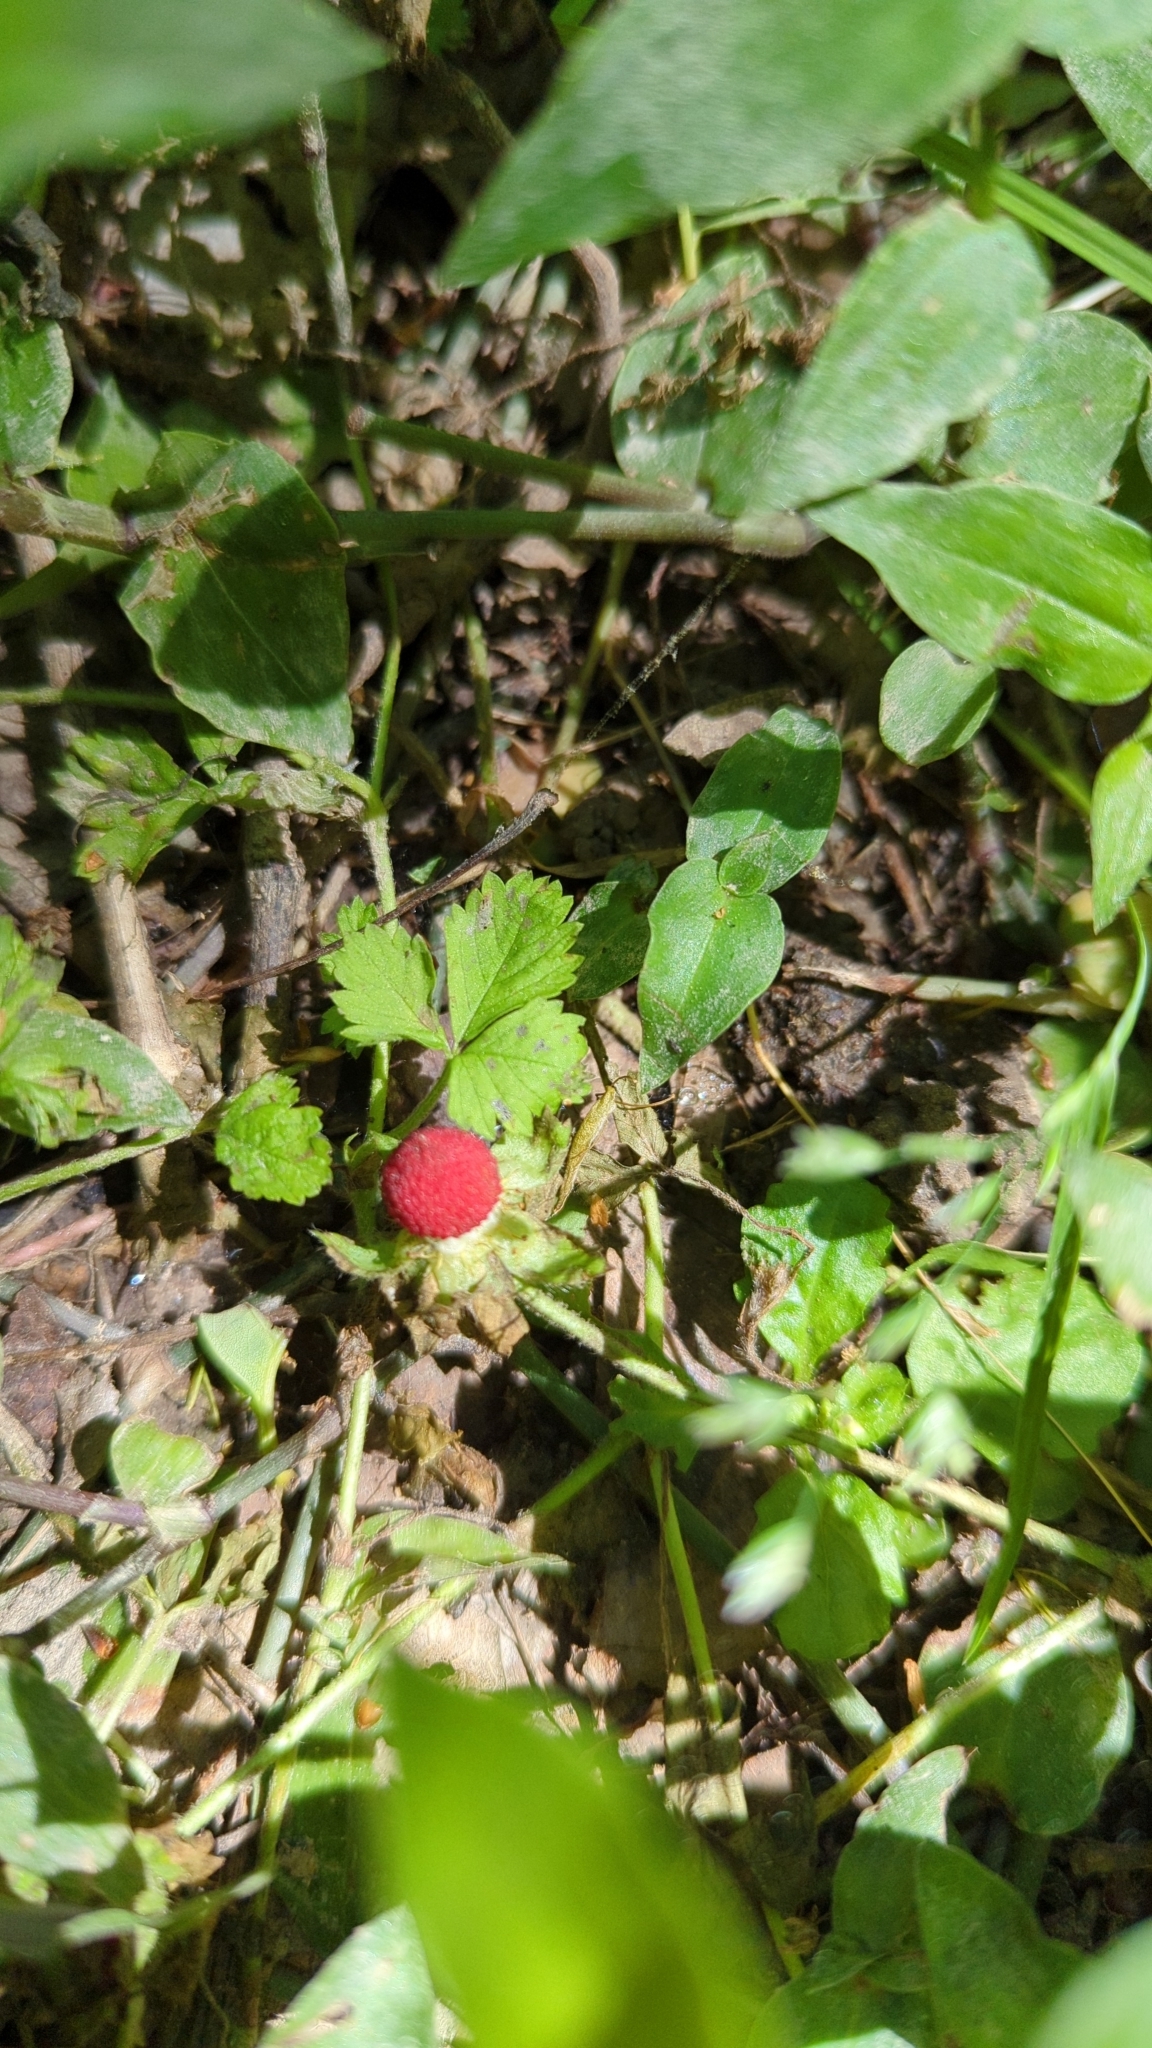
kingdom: Plantae
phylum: Tracheophyta
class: Magnoliopsida
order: Rosales
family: Rosaceae
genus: Potentilla
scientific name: Potentilla indica
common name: Yellow-flowered strawberry
